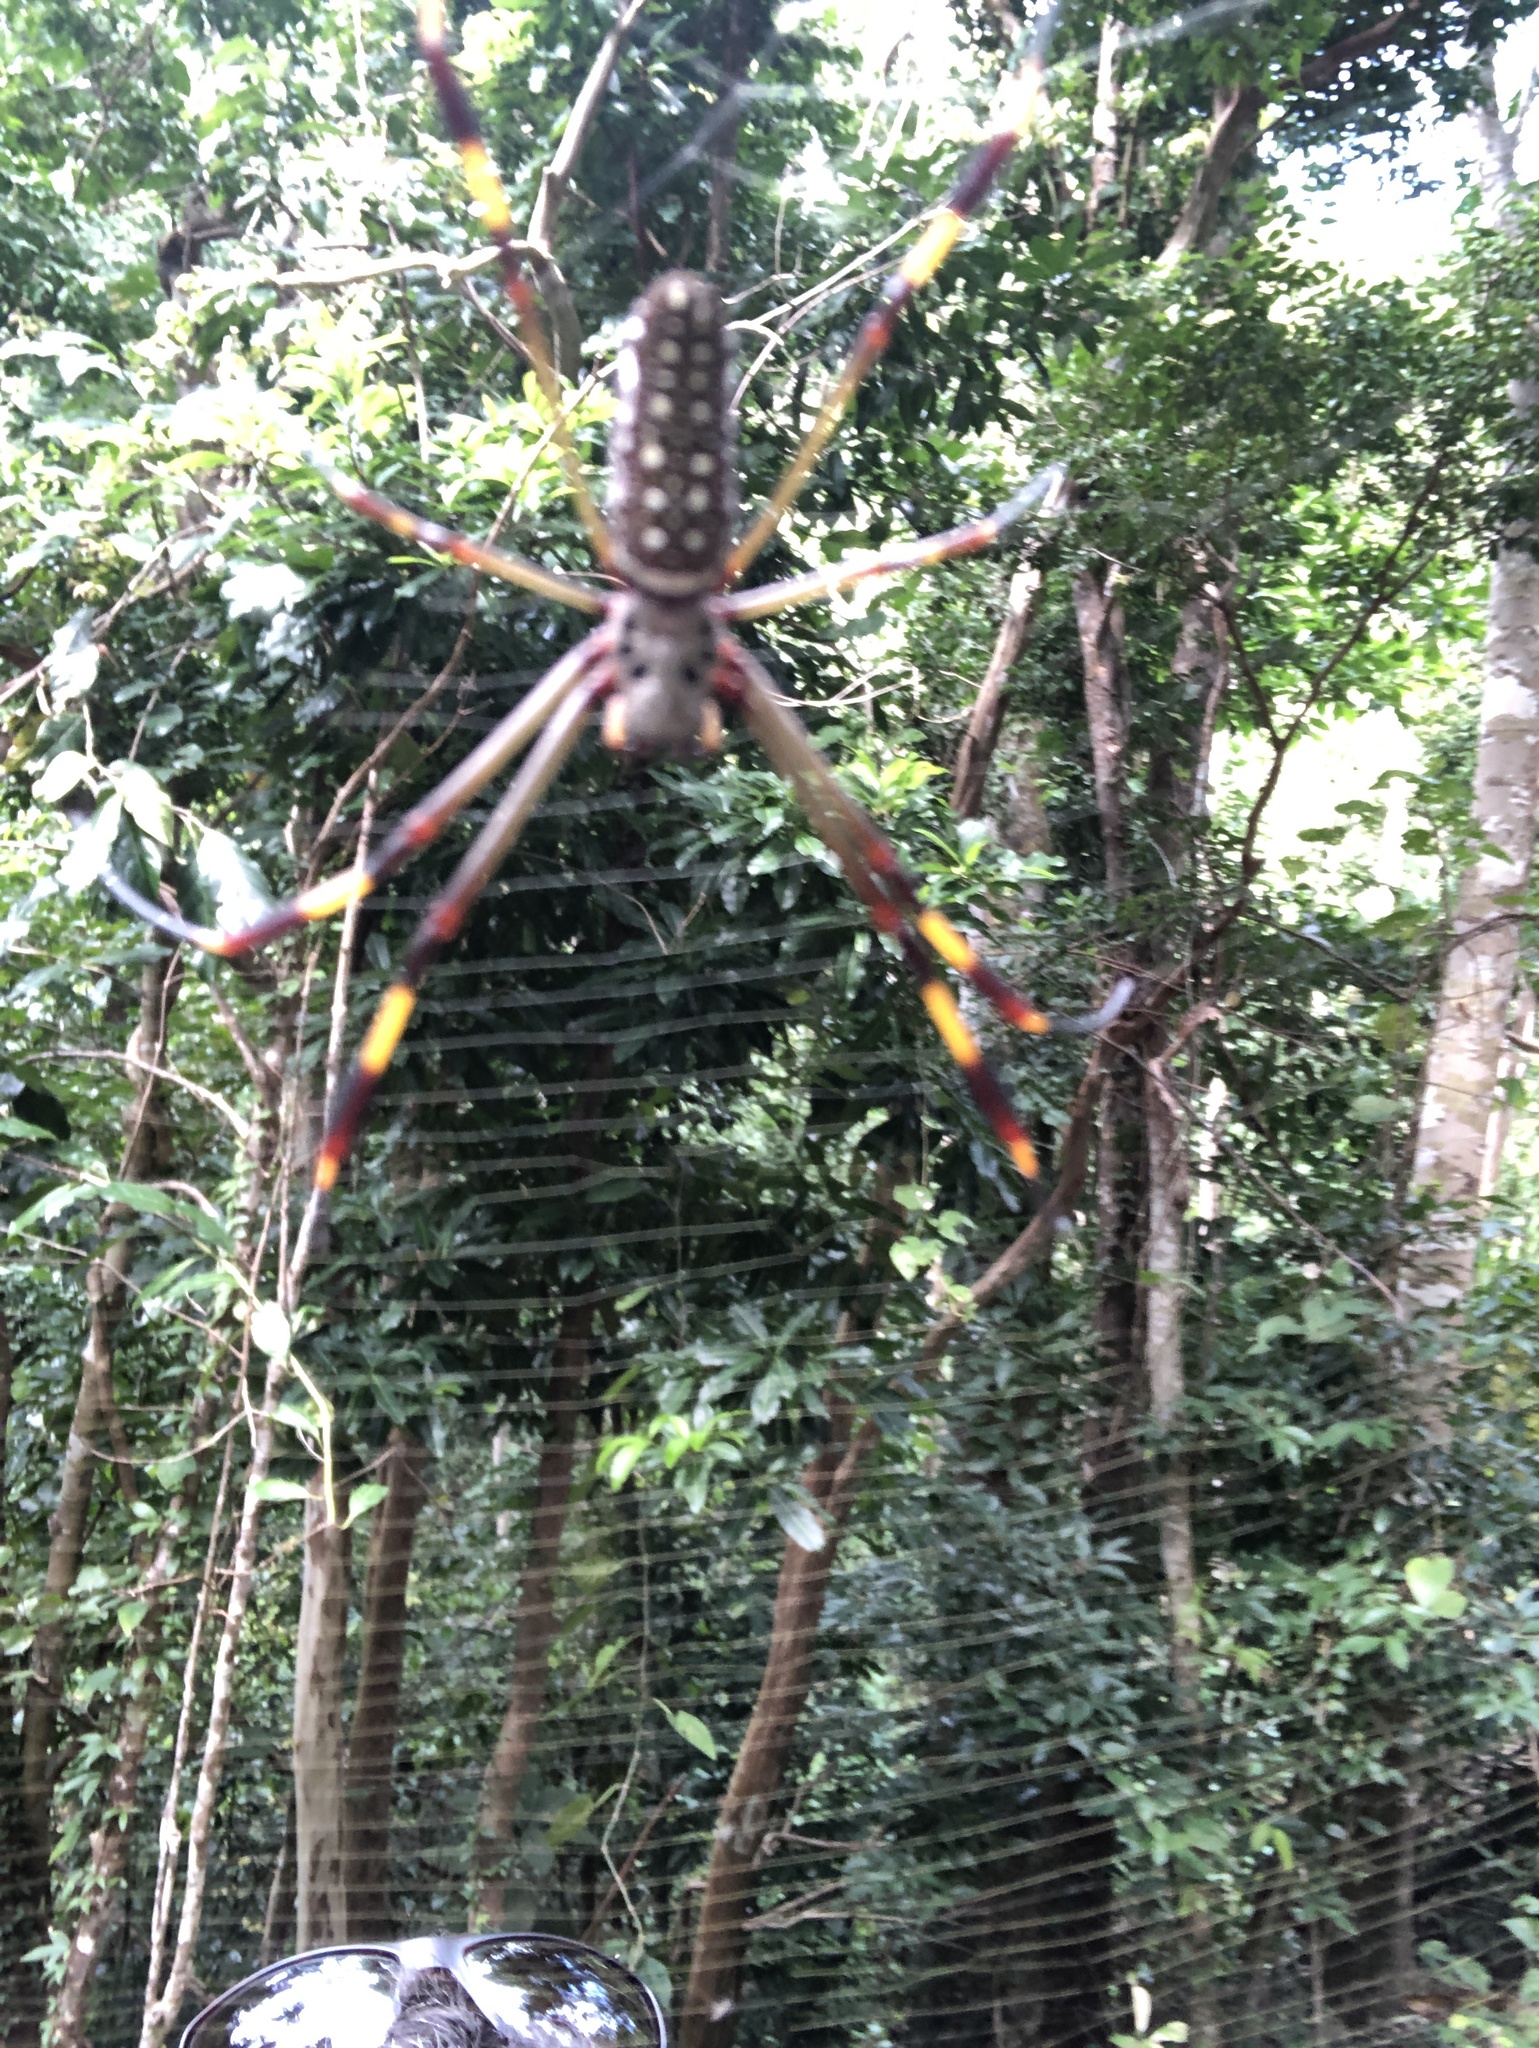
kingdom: Animalia
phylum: Arthropoda
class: Arachnida
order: Araneae
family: Araneidae
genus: Trichonephila
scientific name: Trichonephila clavipes
